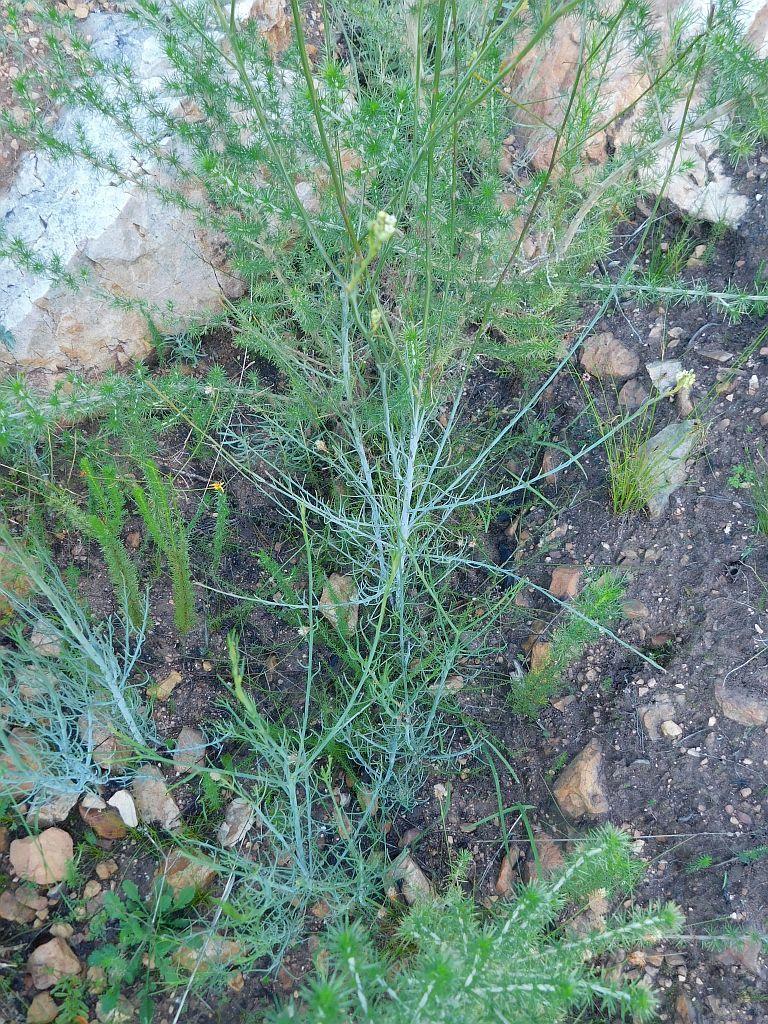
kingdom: Plantae
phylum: Tracheophyta
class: Magnoliopsida
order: Santalales
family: Thesiaceae
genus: Thesium
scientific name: Thesium strictum
